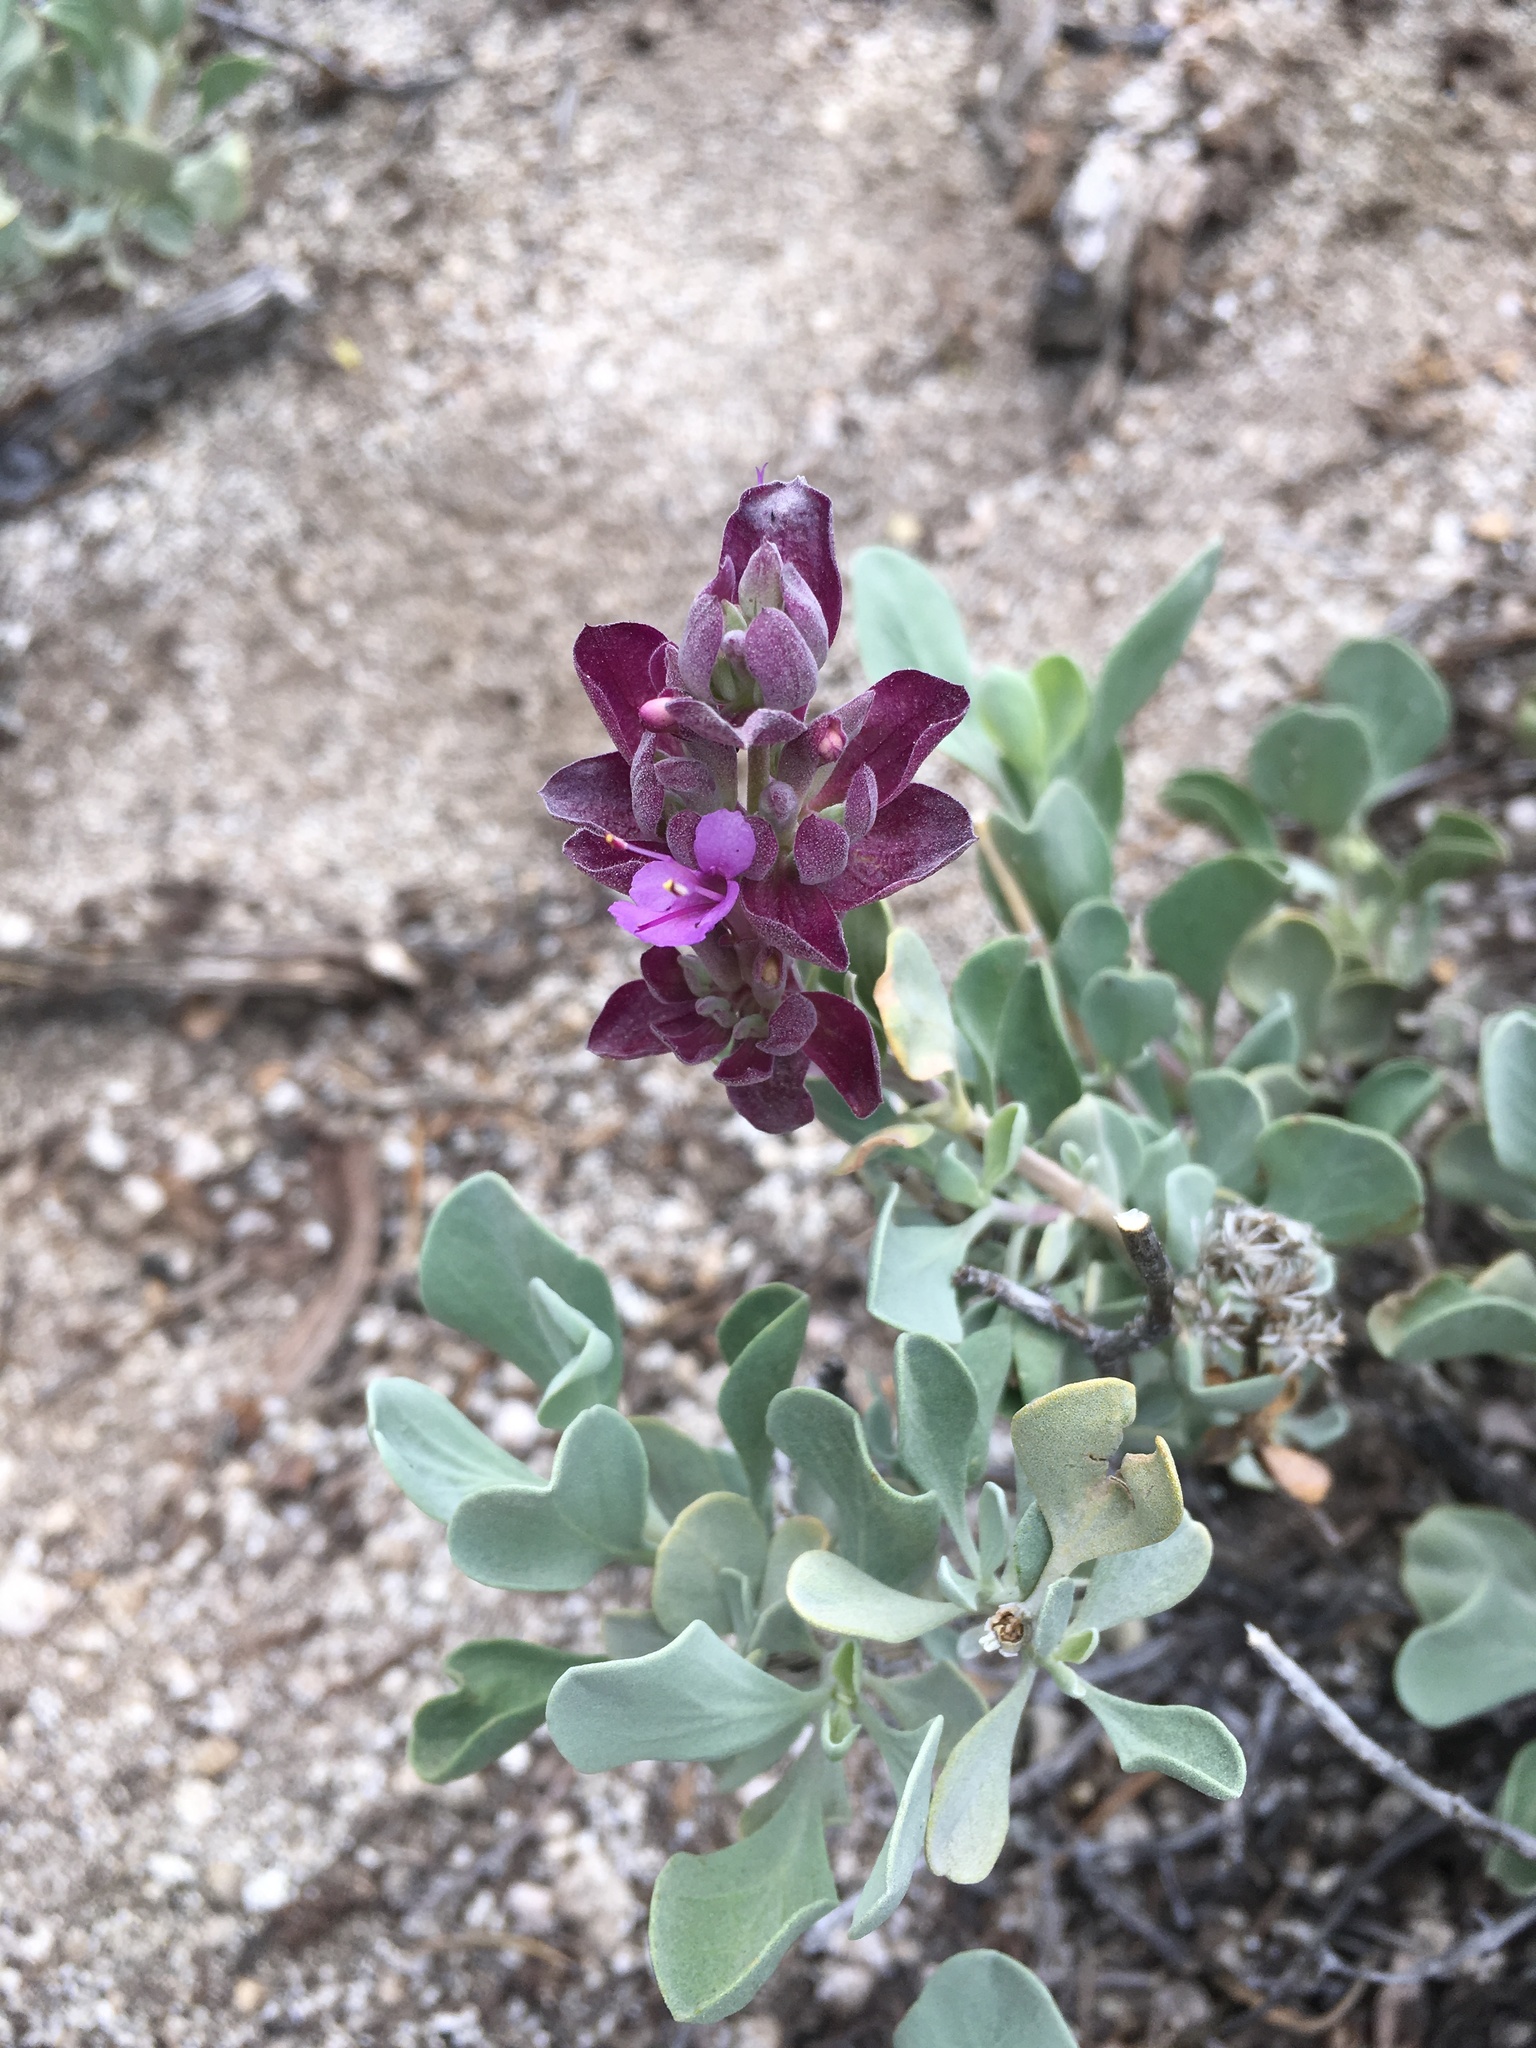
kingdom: Plantae
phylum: Tracheophyta
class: Magnoliopsida
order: Lamiales
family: Lamiaceae
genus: Salvia
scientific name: Salvia pachyphylla
